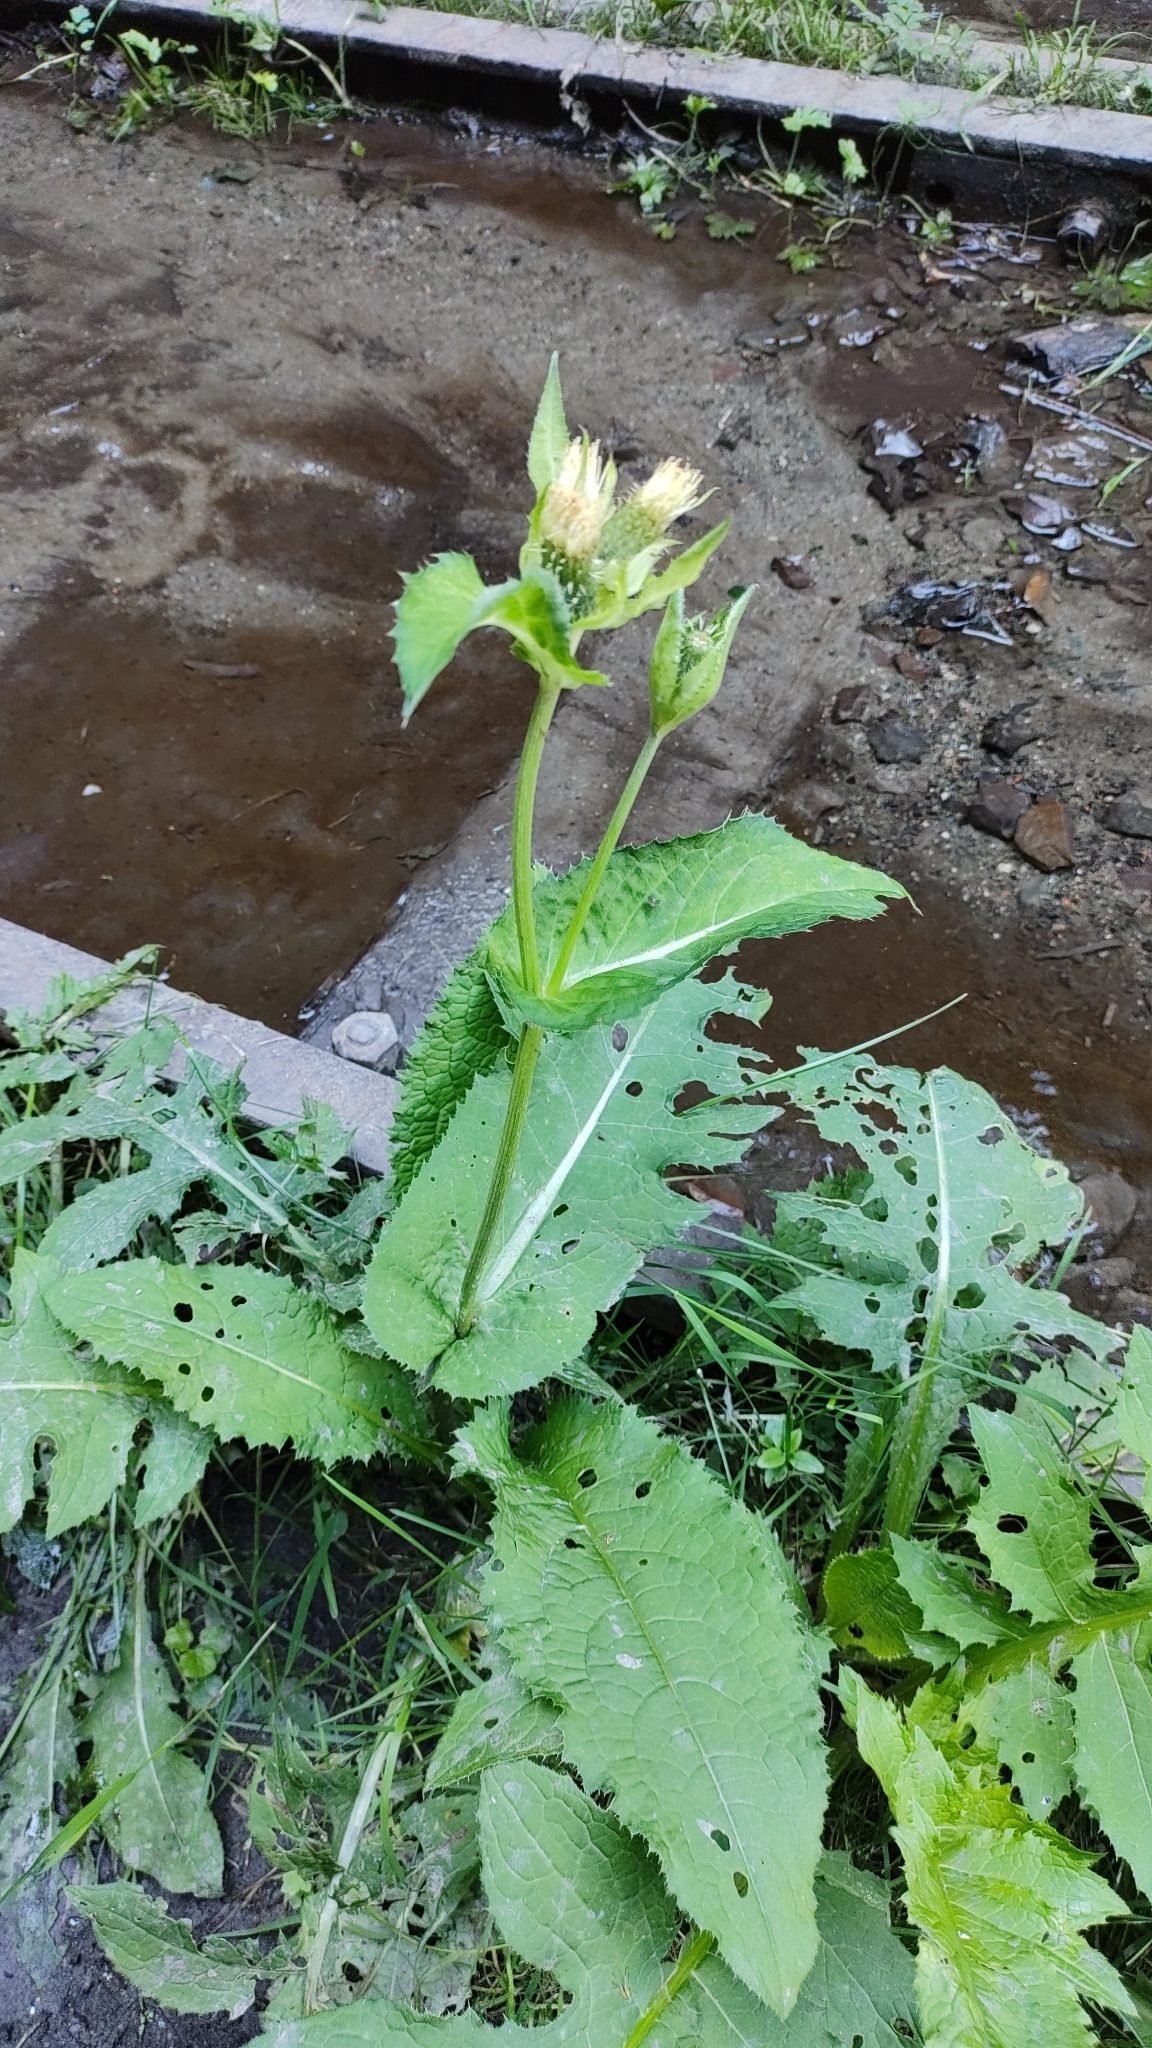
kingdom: Plantae
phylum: Tracheophyta
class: Magnoliopsida
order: Asterales
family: Asteraceae
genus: Cirsium
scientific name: Cirsium oleraceum
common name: Cabbage thistle
